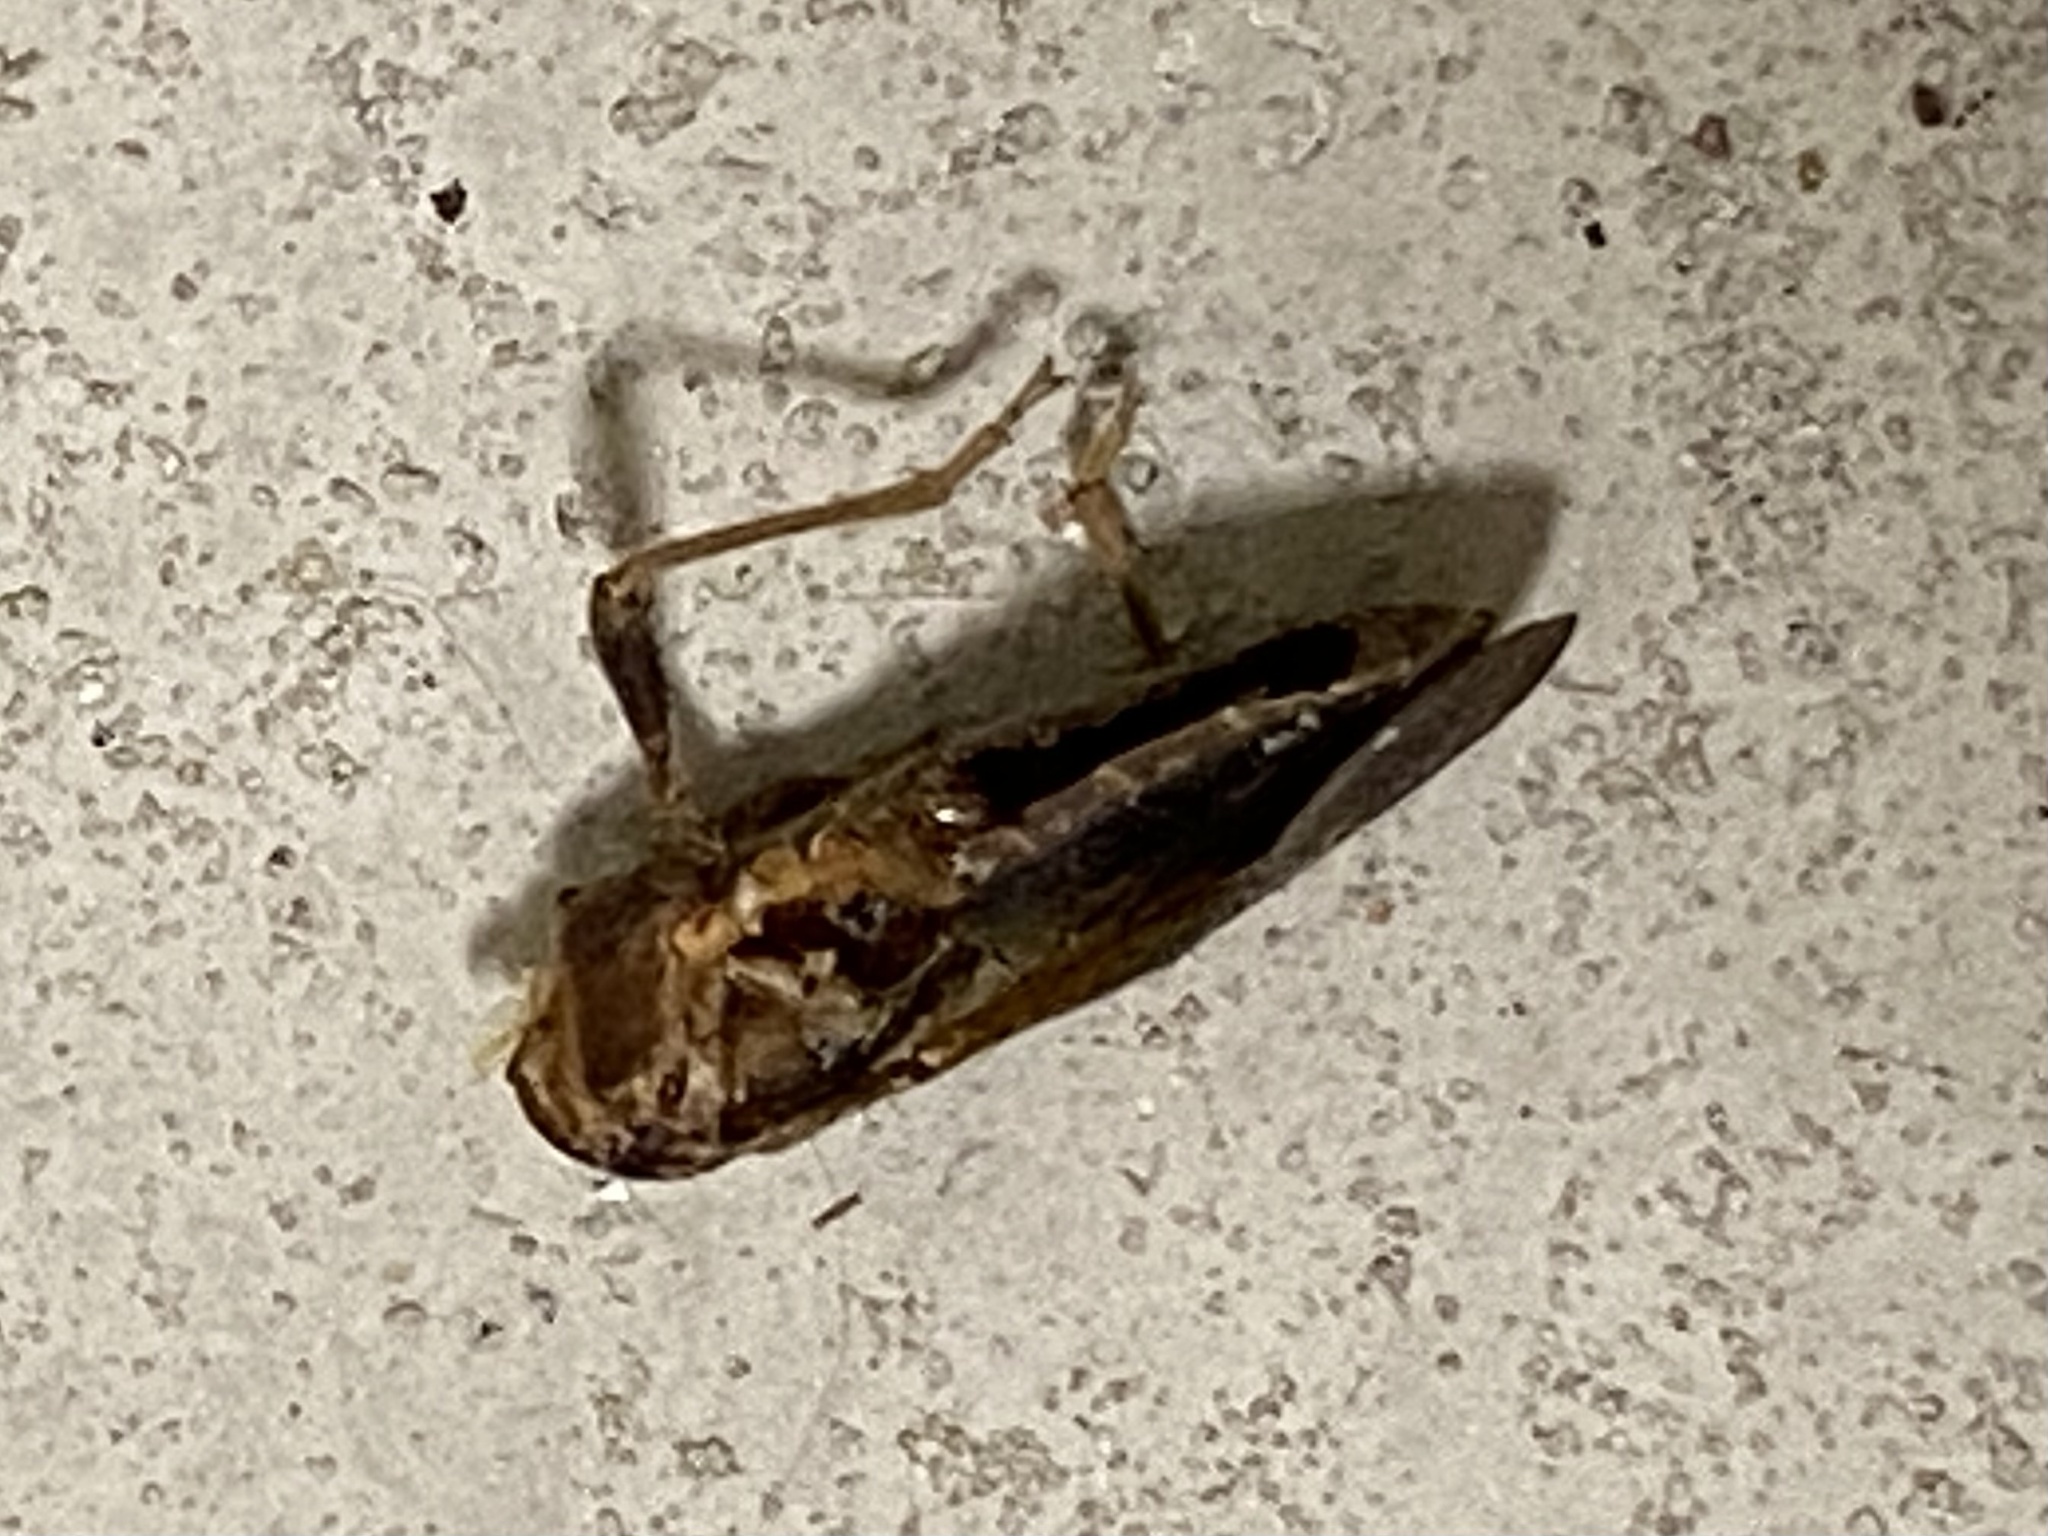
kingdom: Animalia
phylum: Arthropoda
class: Insecta
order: Hemiptera
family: Coreidae
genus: Euthochtha
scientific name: Euthochtha galeator
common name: Helmeted squash bug
